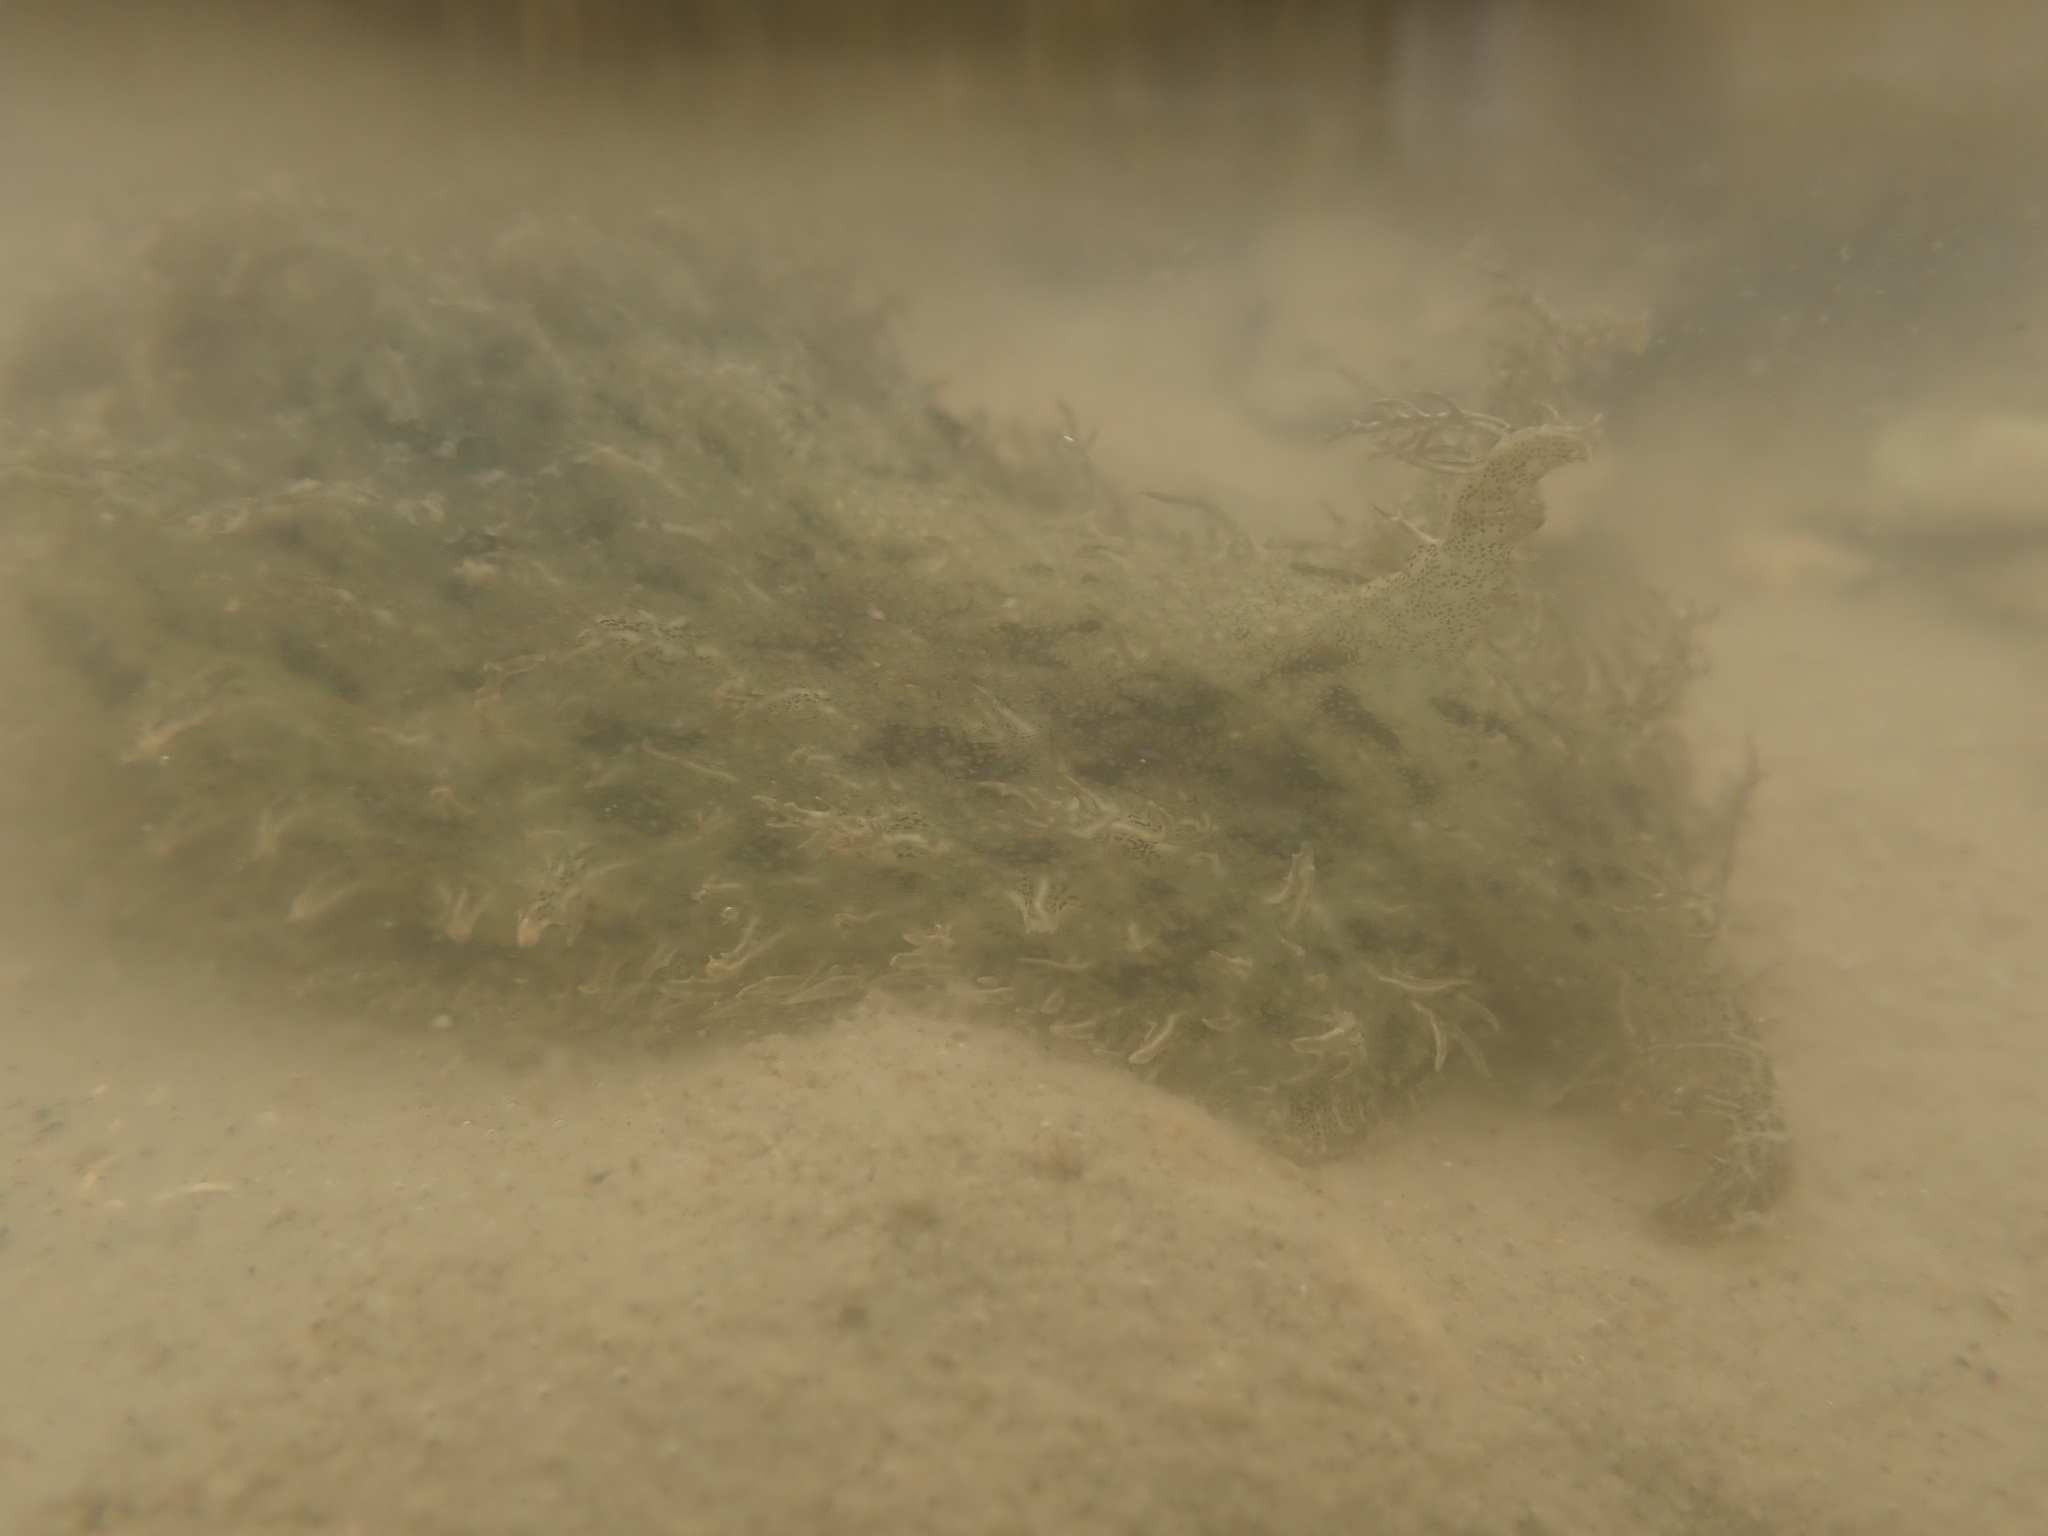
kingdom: Animalia
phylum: Mollusca
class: Gastropoda
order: Aplysiida
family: Aplysiidae
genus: Bursatella
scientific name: Bursatella leachii
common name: Shaggy sea hare
